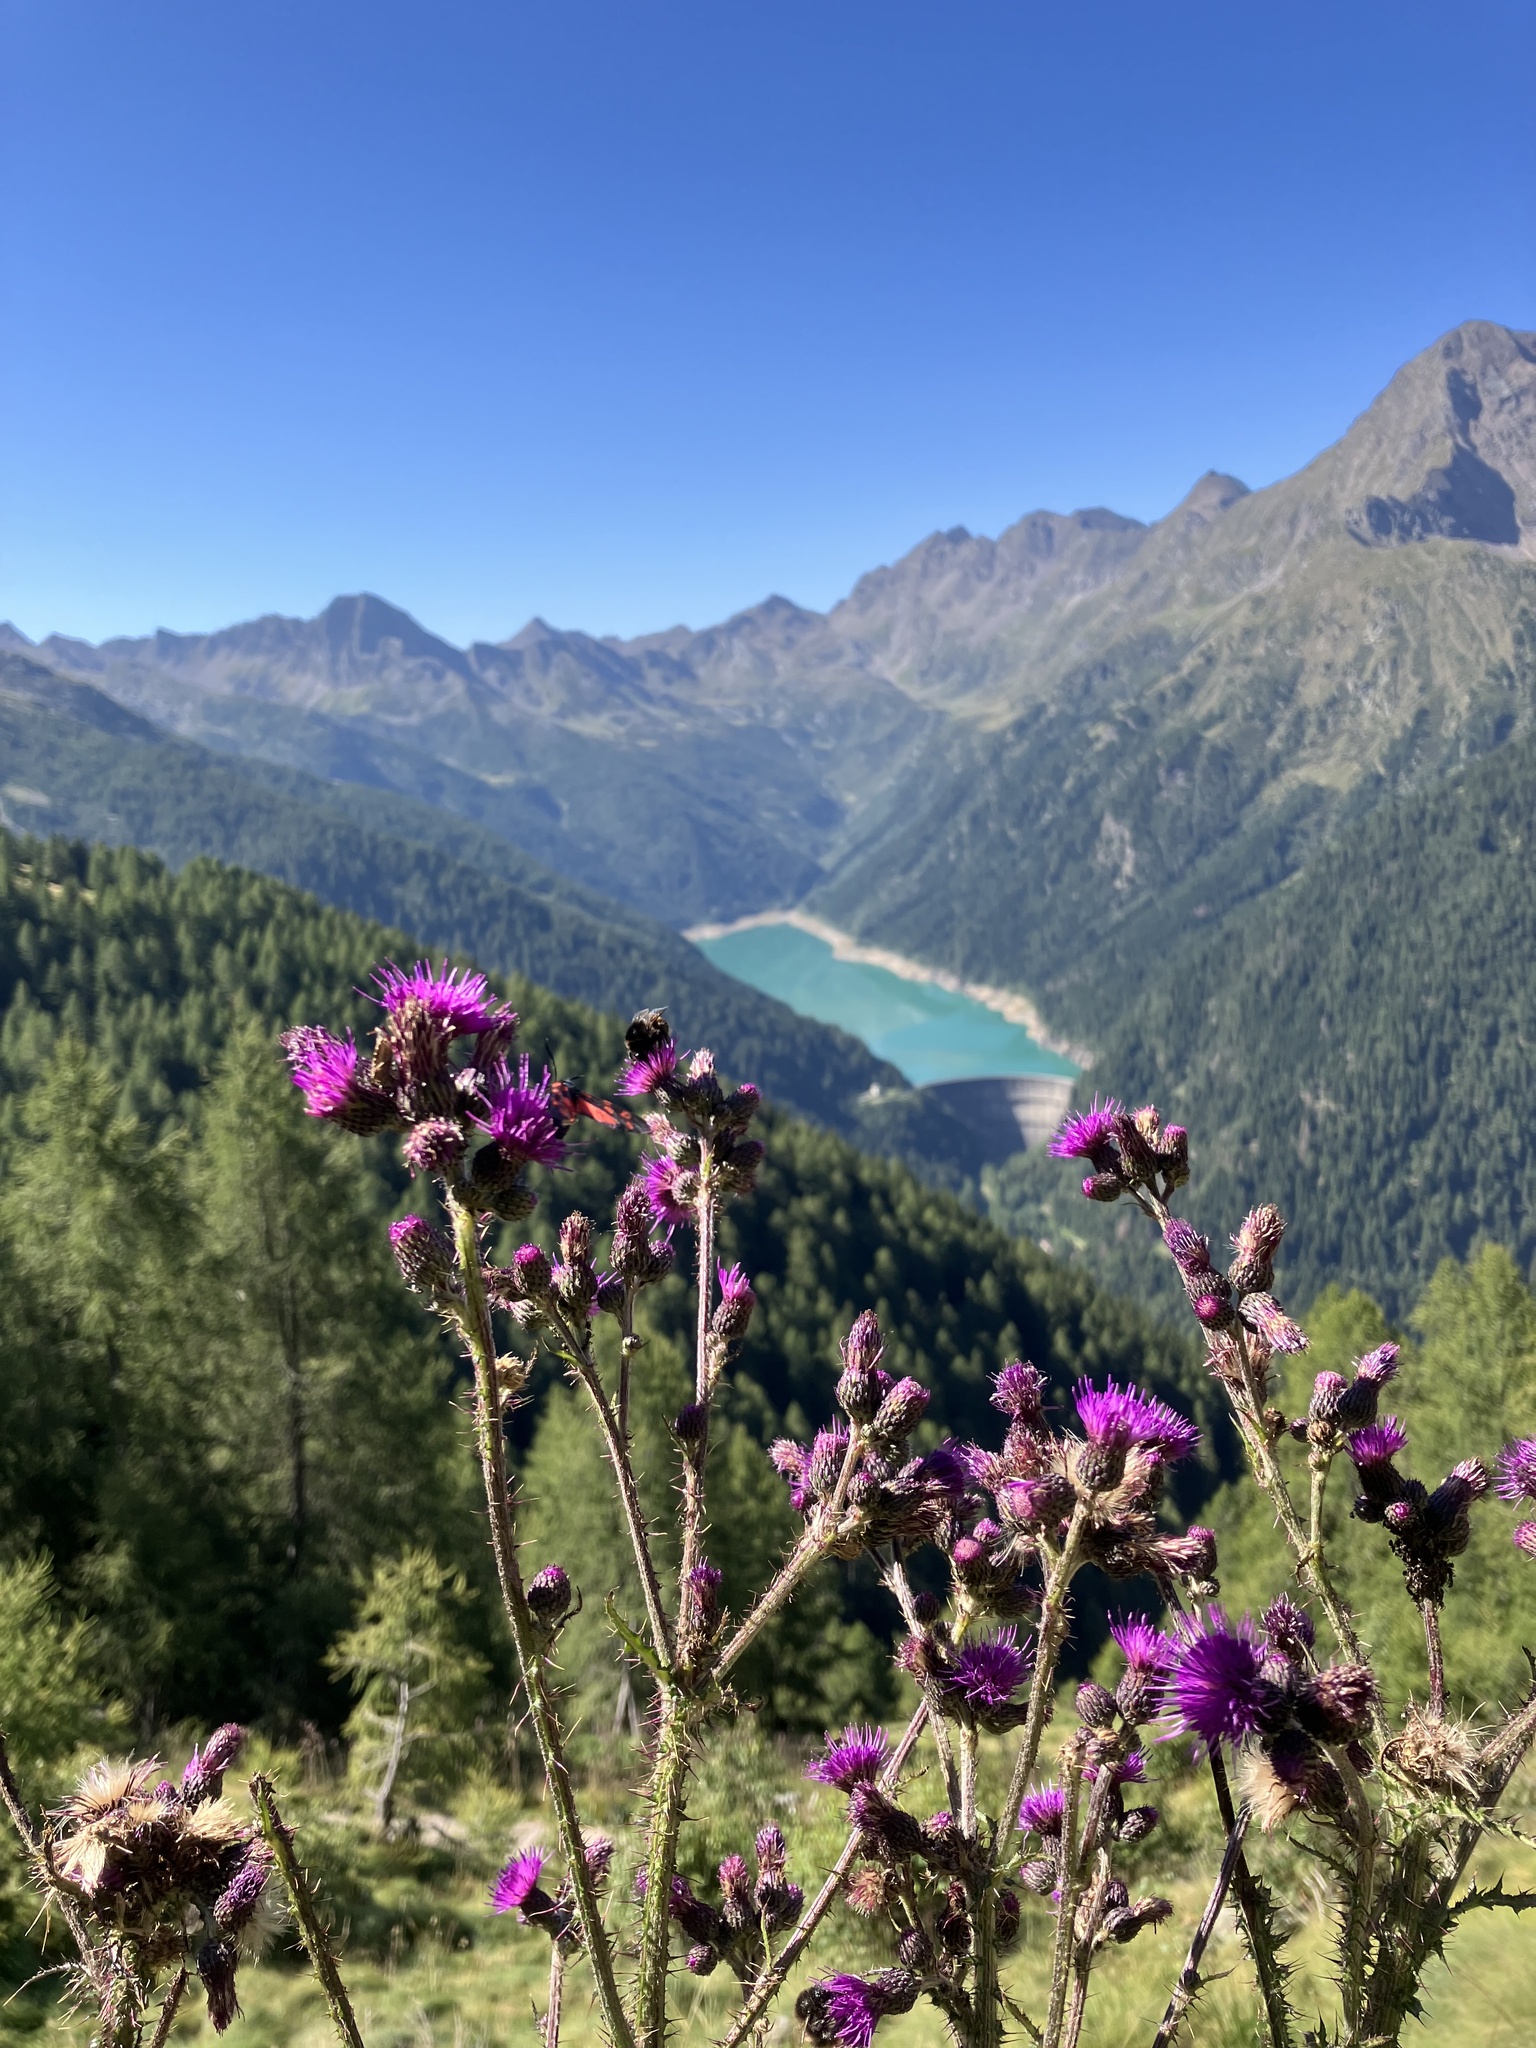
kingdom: Plantae
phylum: Tracheophyta
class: Magnoliopsida
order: Asterales
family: Asteraceae
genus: Cirsium
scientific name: Cirsium palustre
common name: Marsh thistle
